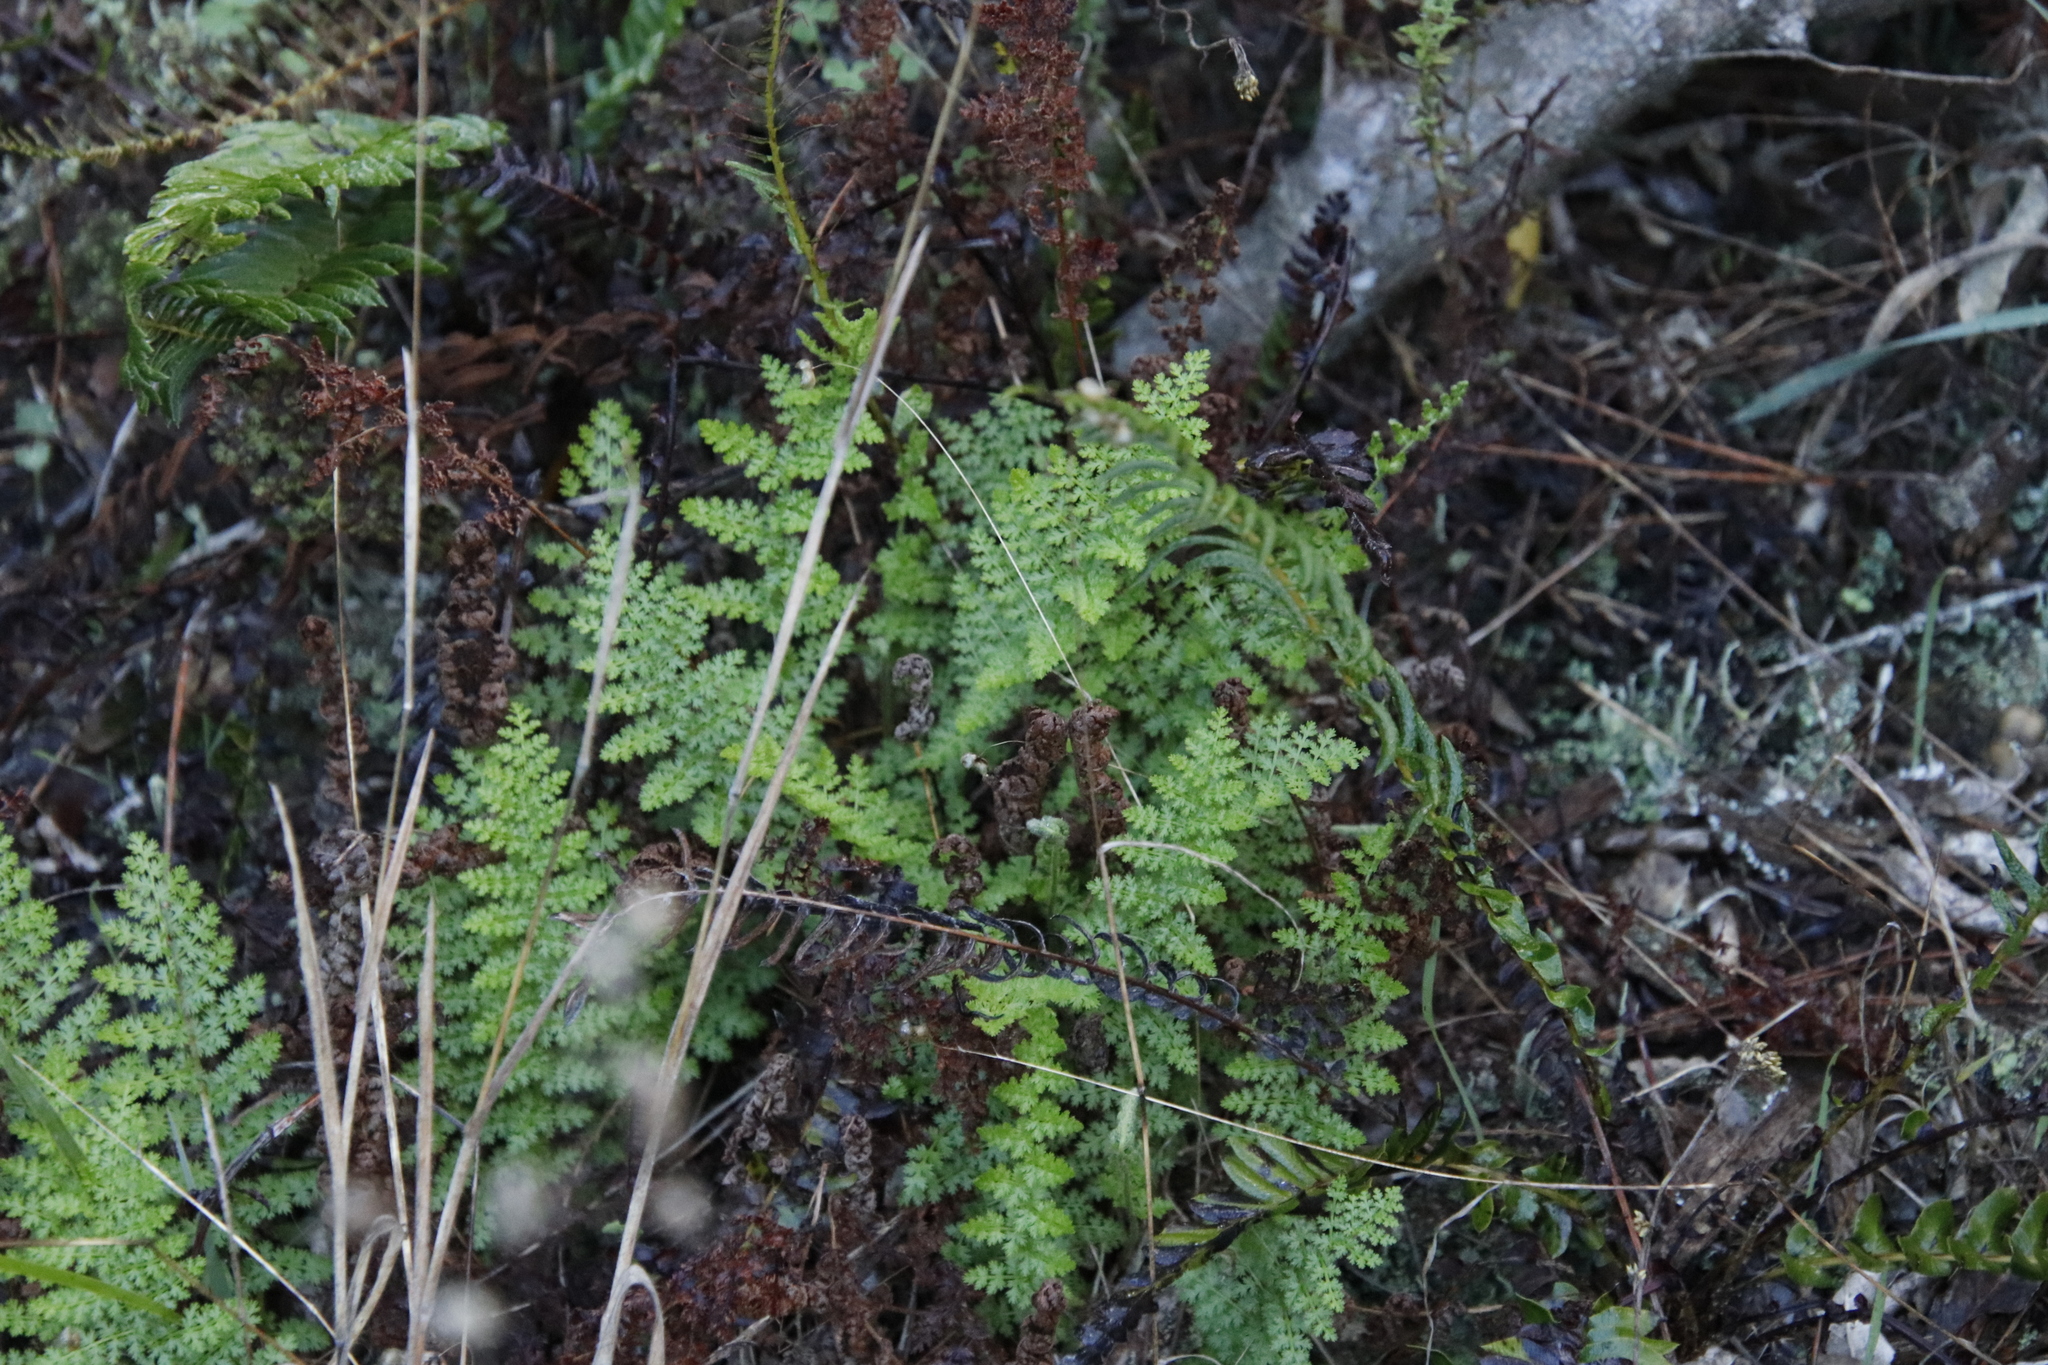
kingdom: Plantae
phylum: Tracheophyta
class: Polypodiopsida
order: Schizaeales
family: Anemiaceae
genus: Anemia
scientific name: Anemia caffrorum
